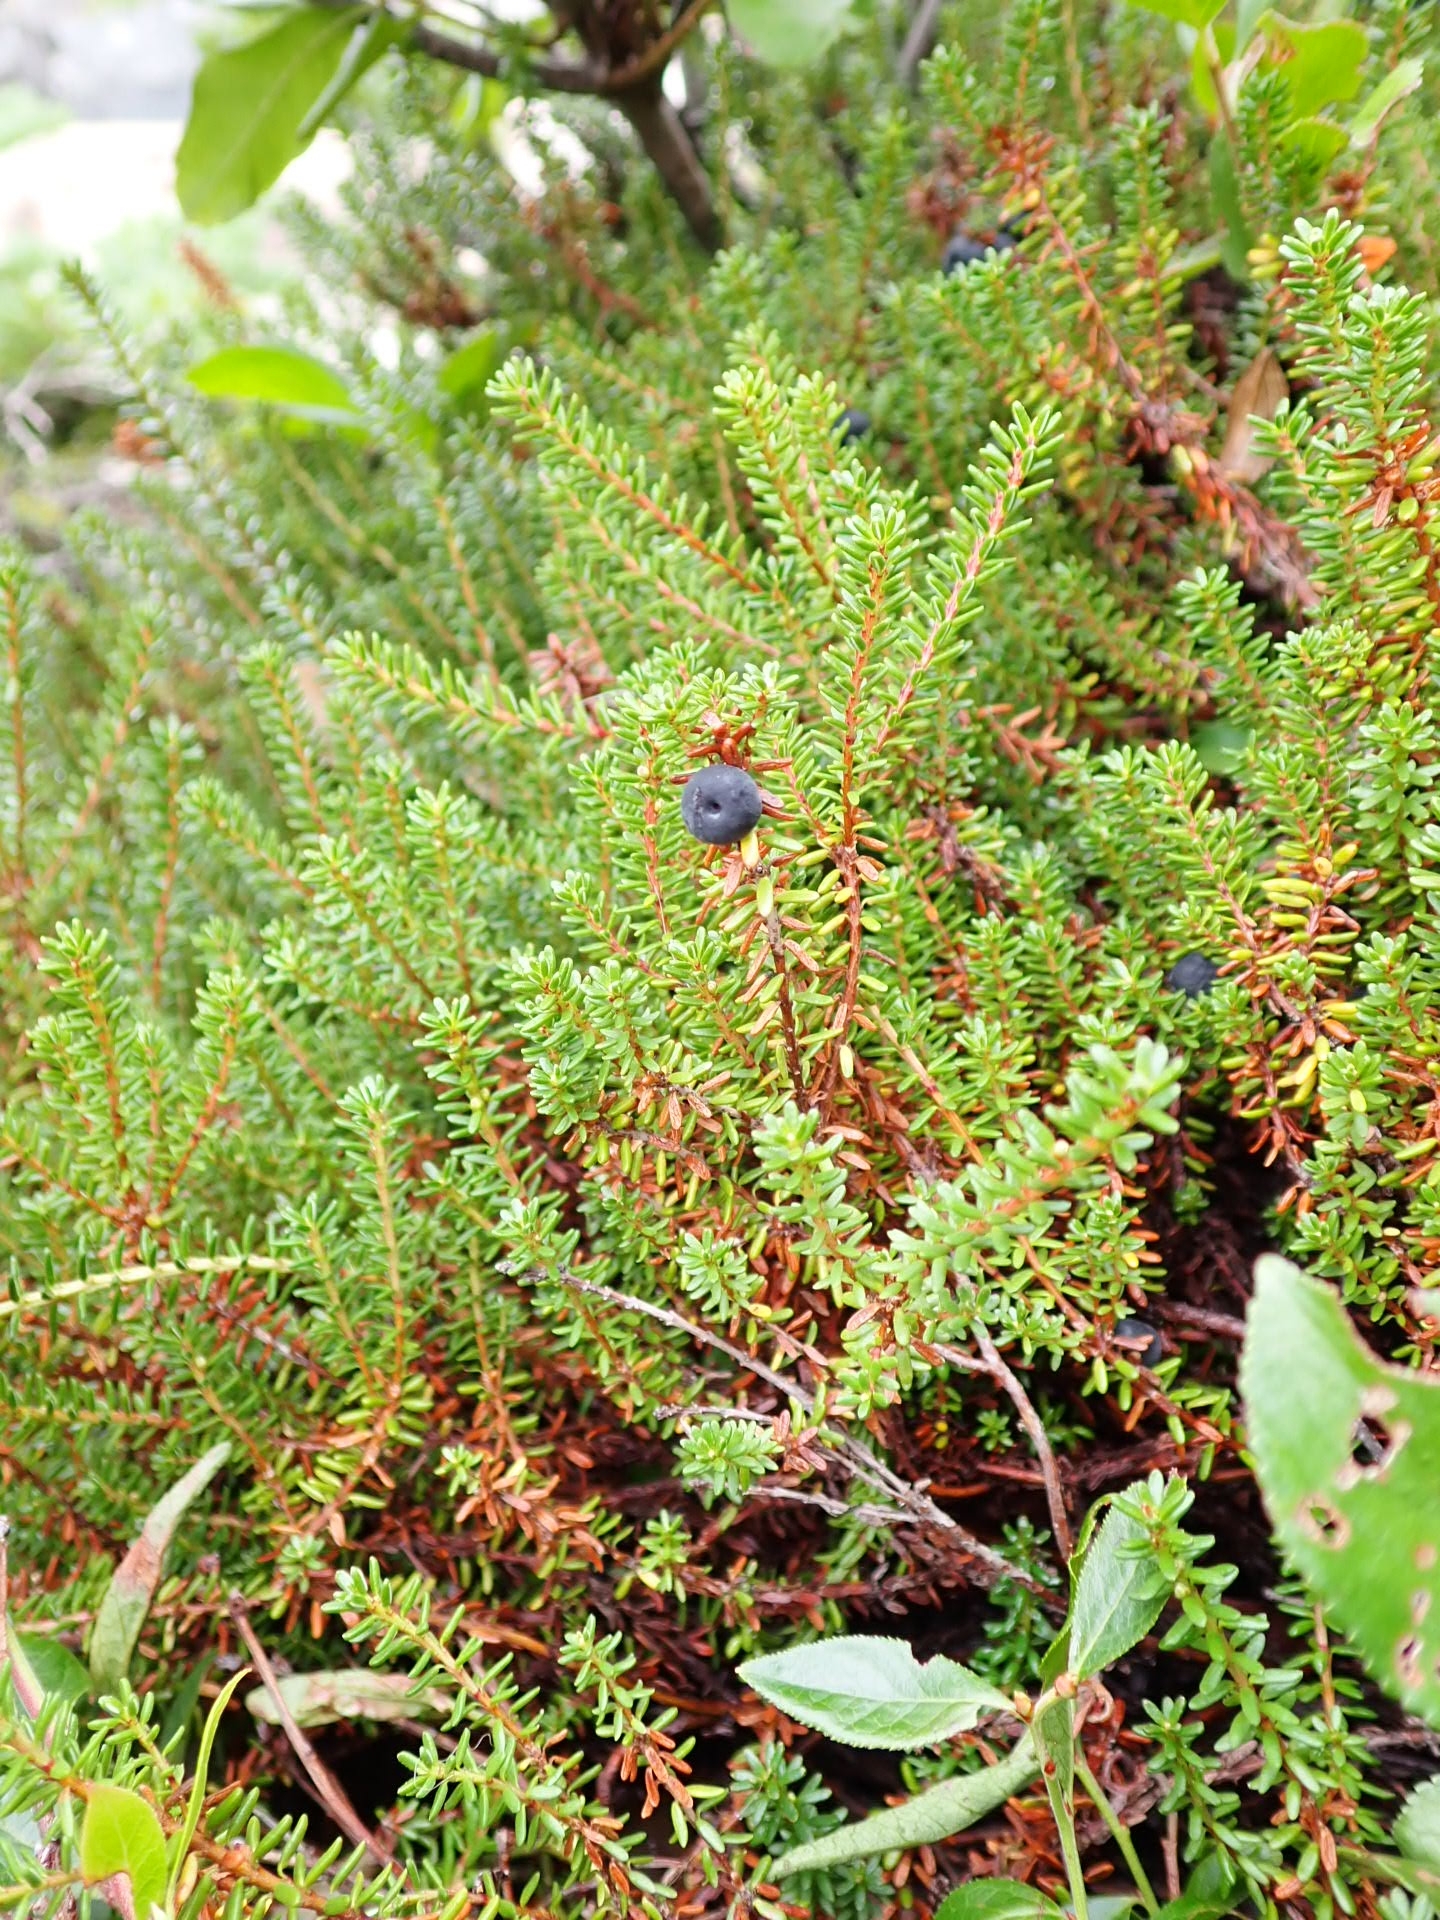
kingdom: Plantae
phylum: Tracheophyta
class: Magnoliopsida
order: Ericales
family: Ericaceae
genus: Empetrum
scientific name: Empetrum nigrum
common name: Black crowberry
